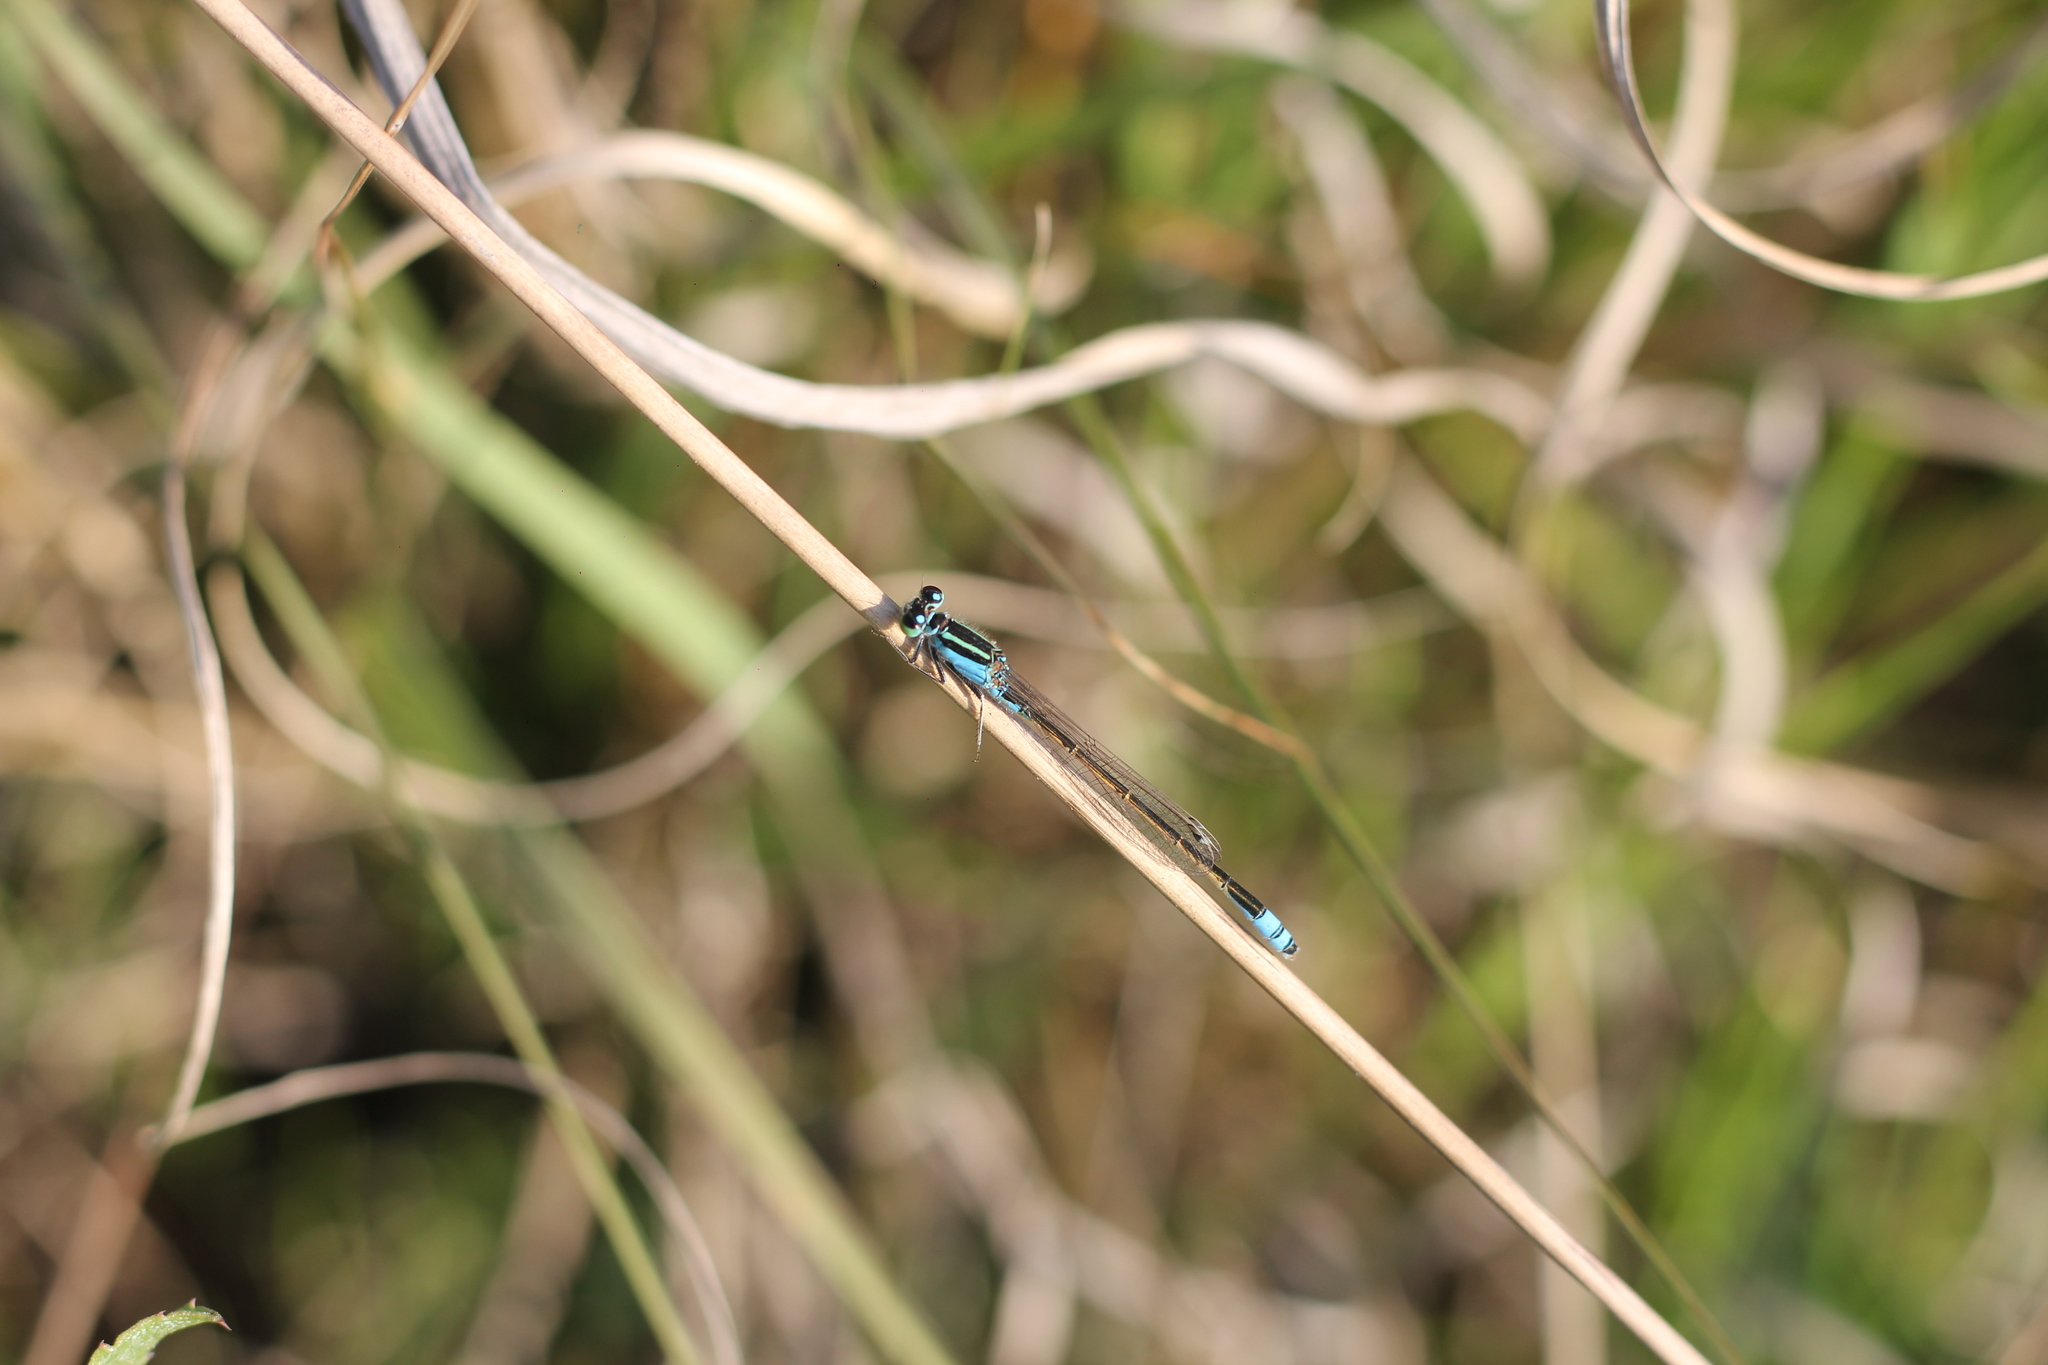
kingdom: Animalia
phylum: Arthropoda
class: Insecta
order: Odonata
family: Coenagrionidae
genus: Ischnura
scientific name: Ischnura fluviatilis
